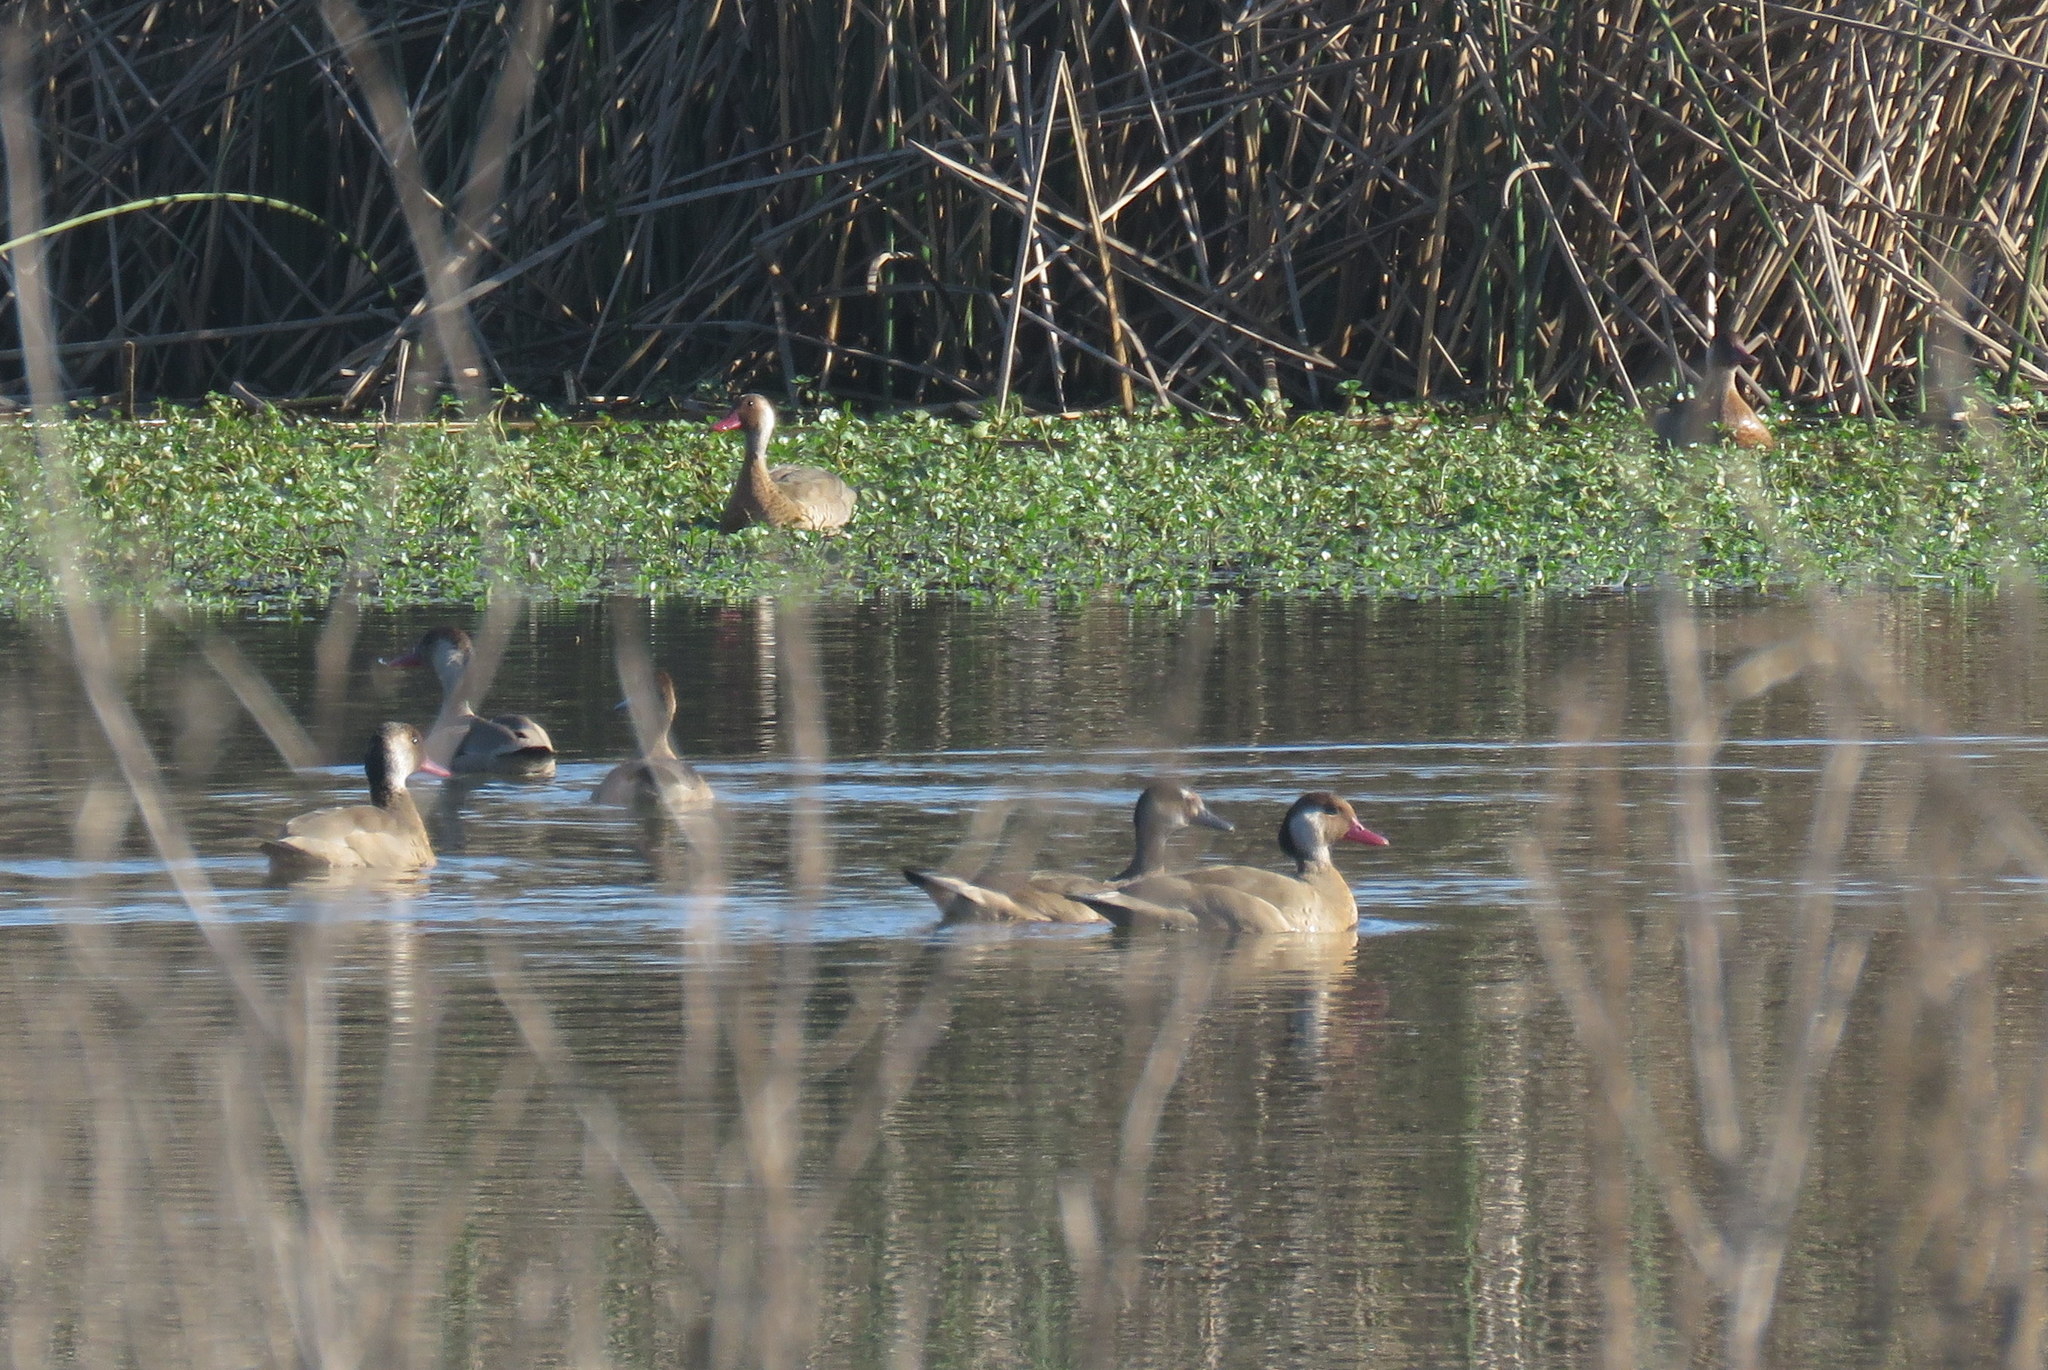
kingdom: Animalia
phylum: Chordata
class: Aves
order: Anseriformes
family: Anatidae
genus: Amazonetta
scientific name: Amazonetta brasiliensis
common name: Brazilian teal
